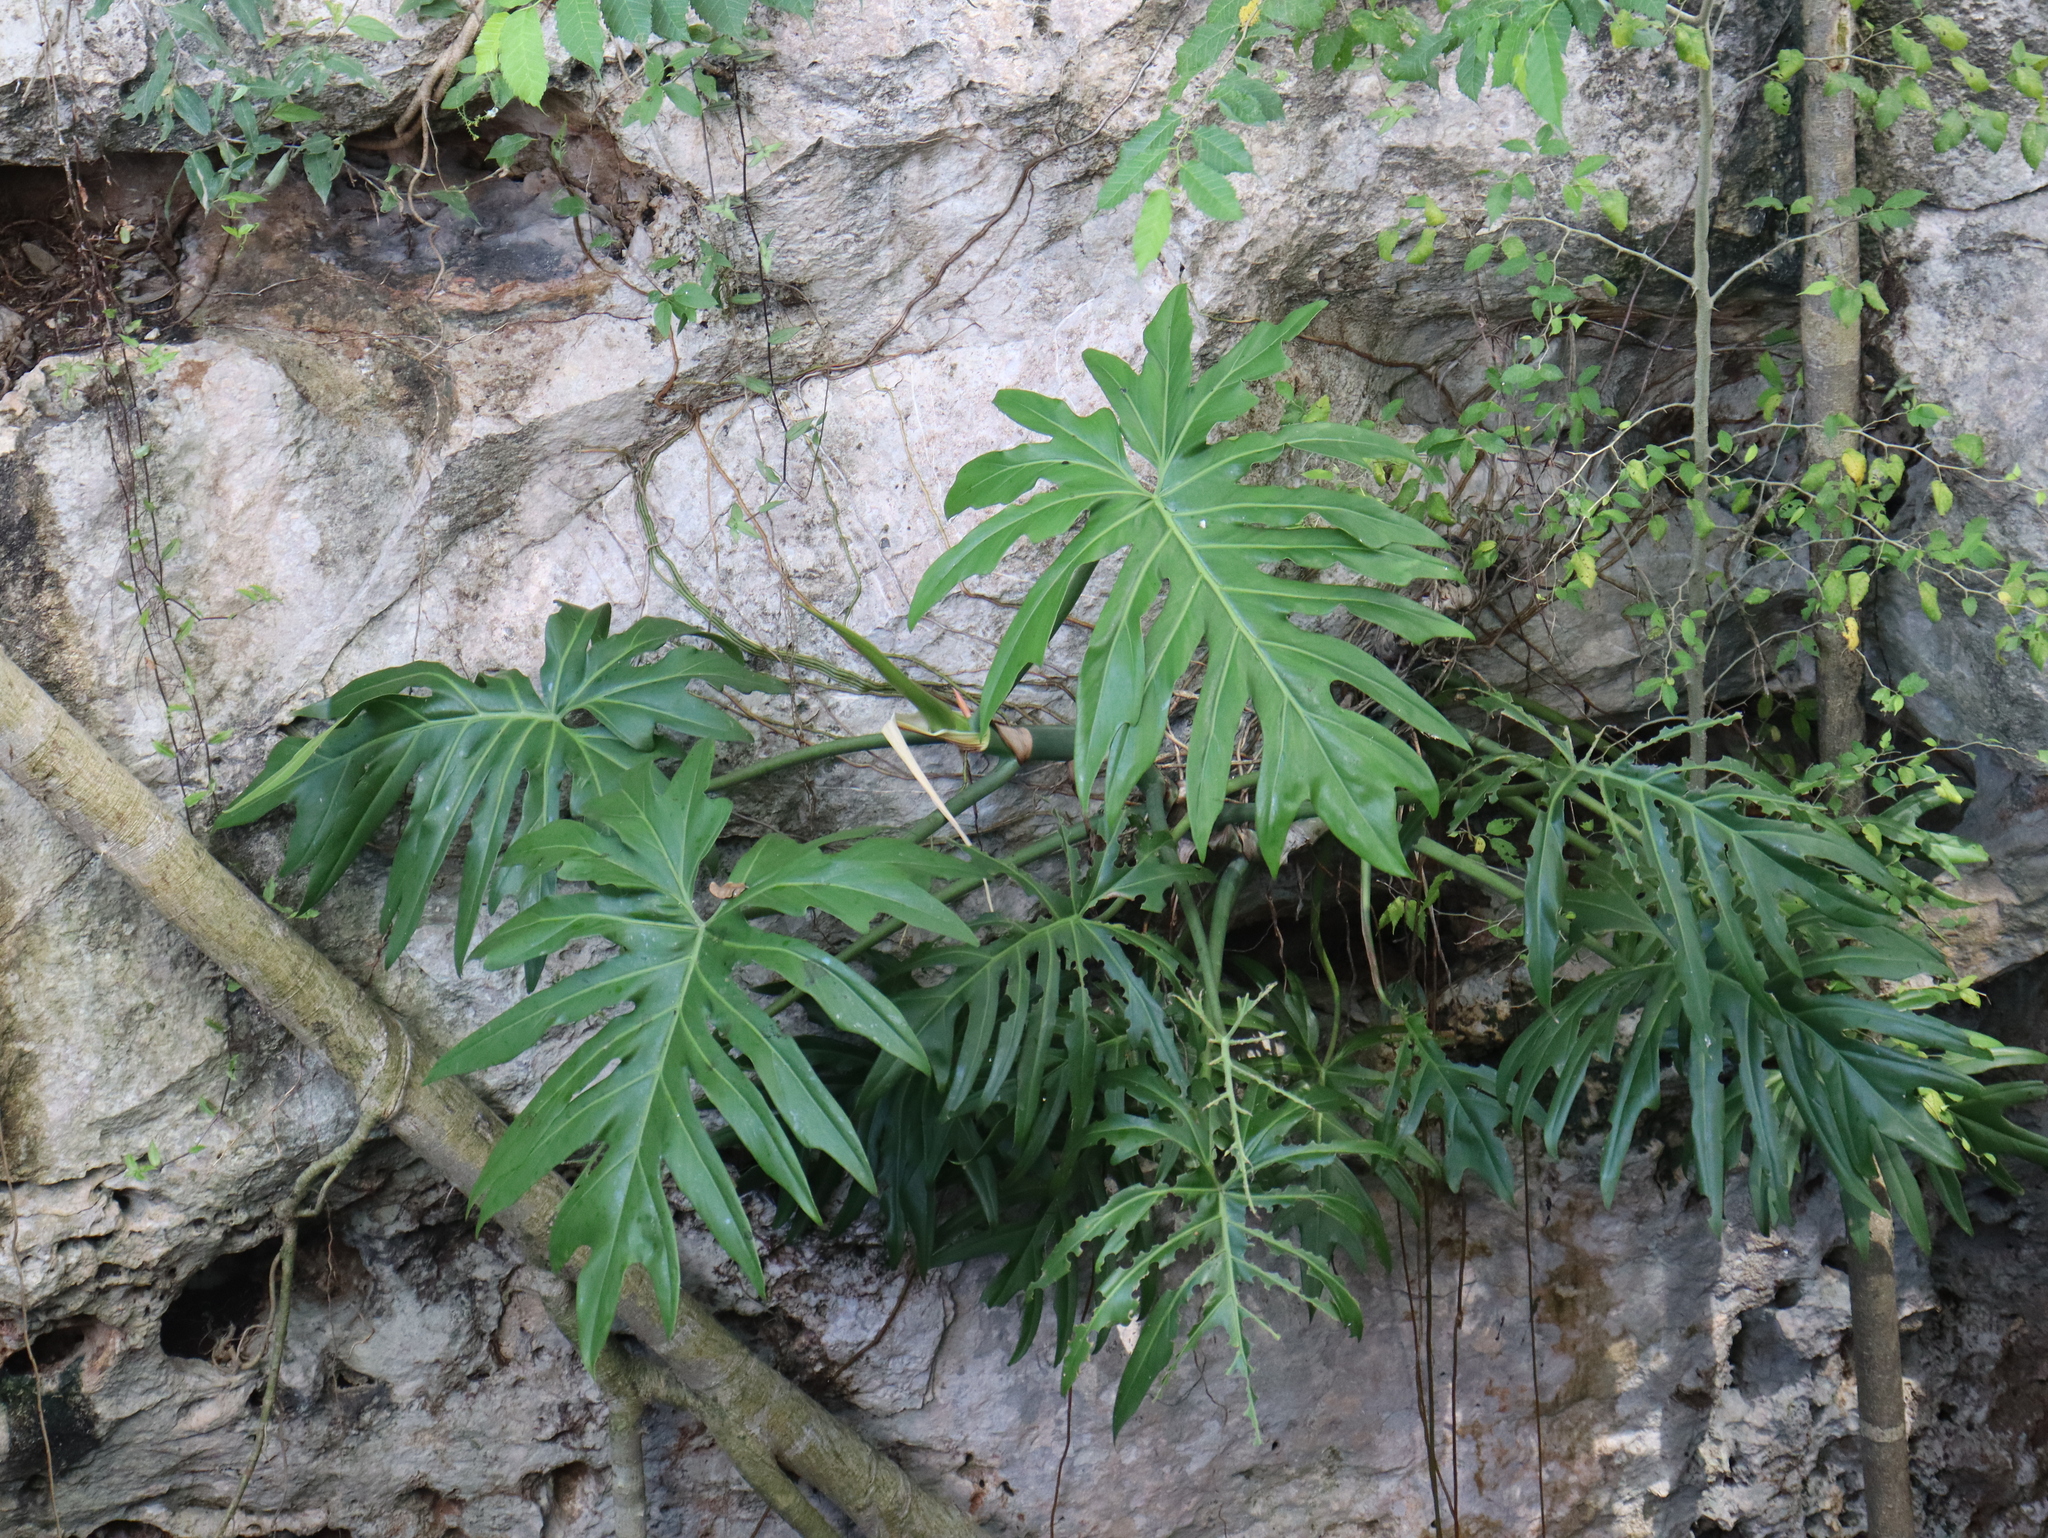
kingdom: Plantae
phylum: Tracheophyta
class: Liliopsida
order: Alismatales
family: Araceae
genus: Philodendron
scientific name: Philodendron radiatum
